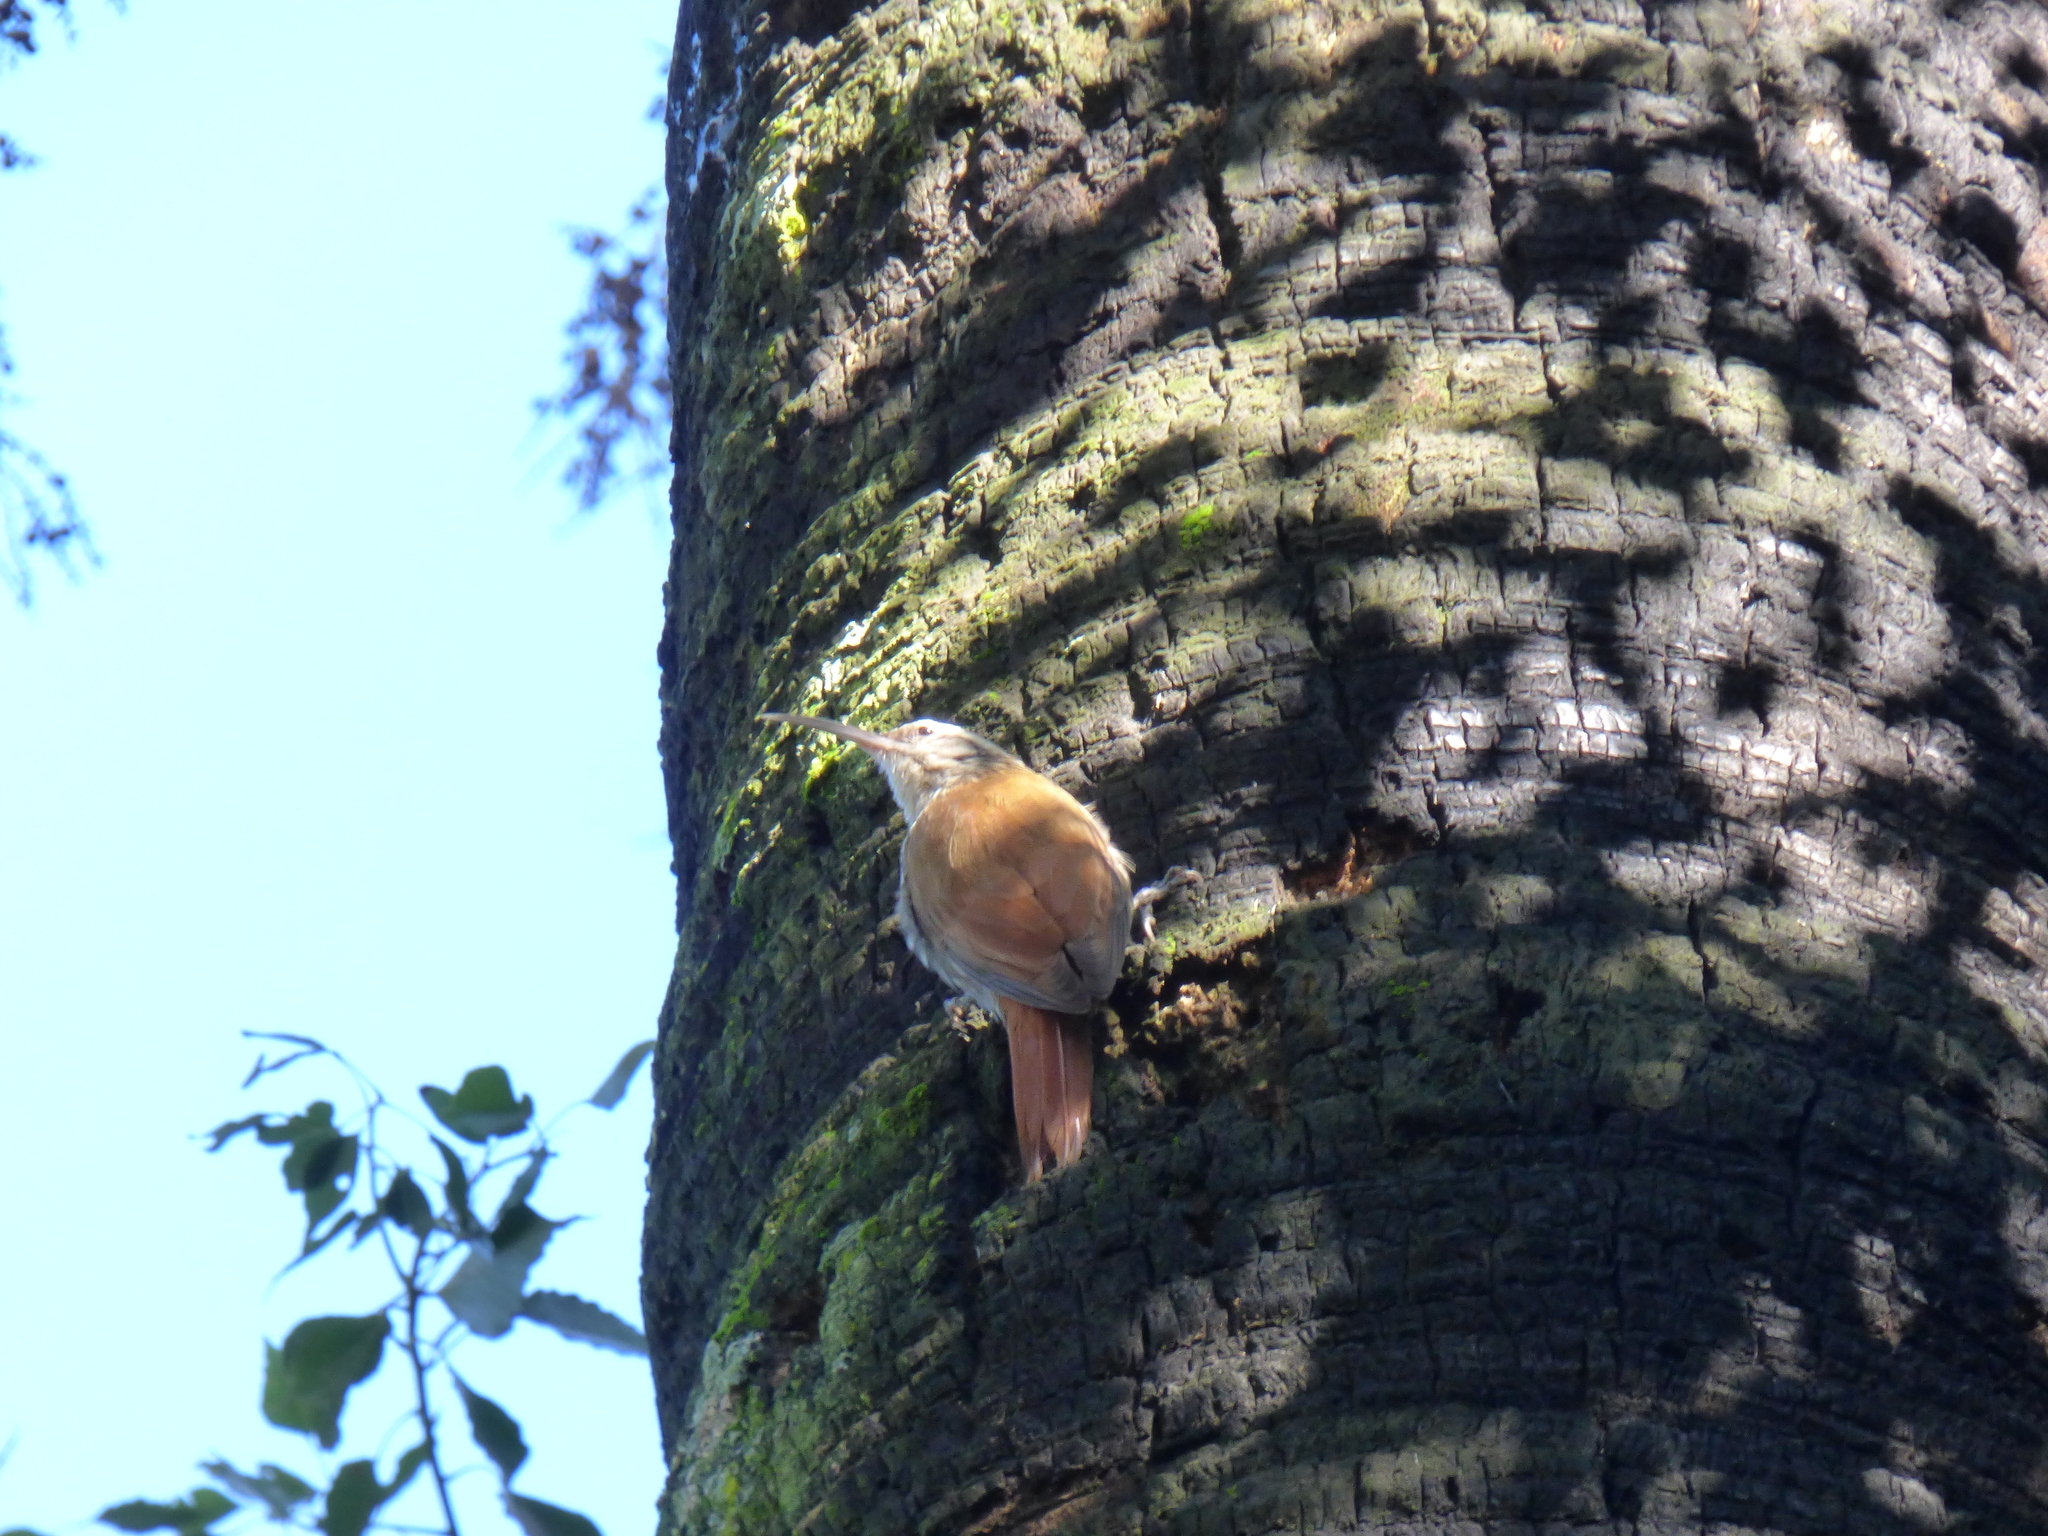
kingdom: Animalia
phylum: Chordata
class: Aves
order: Passeriformes
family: Furnariidae
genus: Lepidocolaptes
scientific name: Lepidocolaptes angustirostris
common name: Narrow-billed woodcreeper
